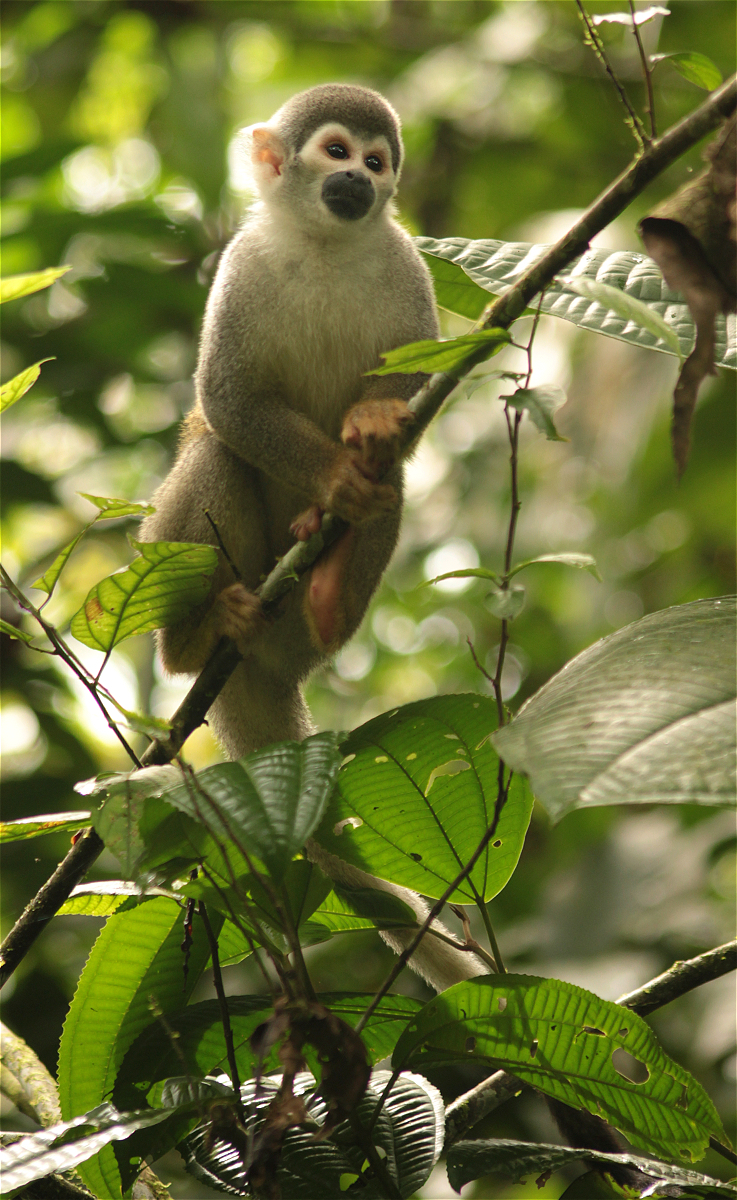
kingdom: Animalia
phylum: Chordata
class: Mammalia
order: Primates
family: Cebidae
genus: Saimiri
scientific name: Saimiri cassiquiarensis
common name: Humboldt’s squirrel monkey
